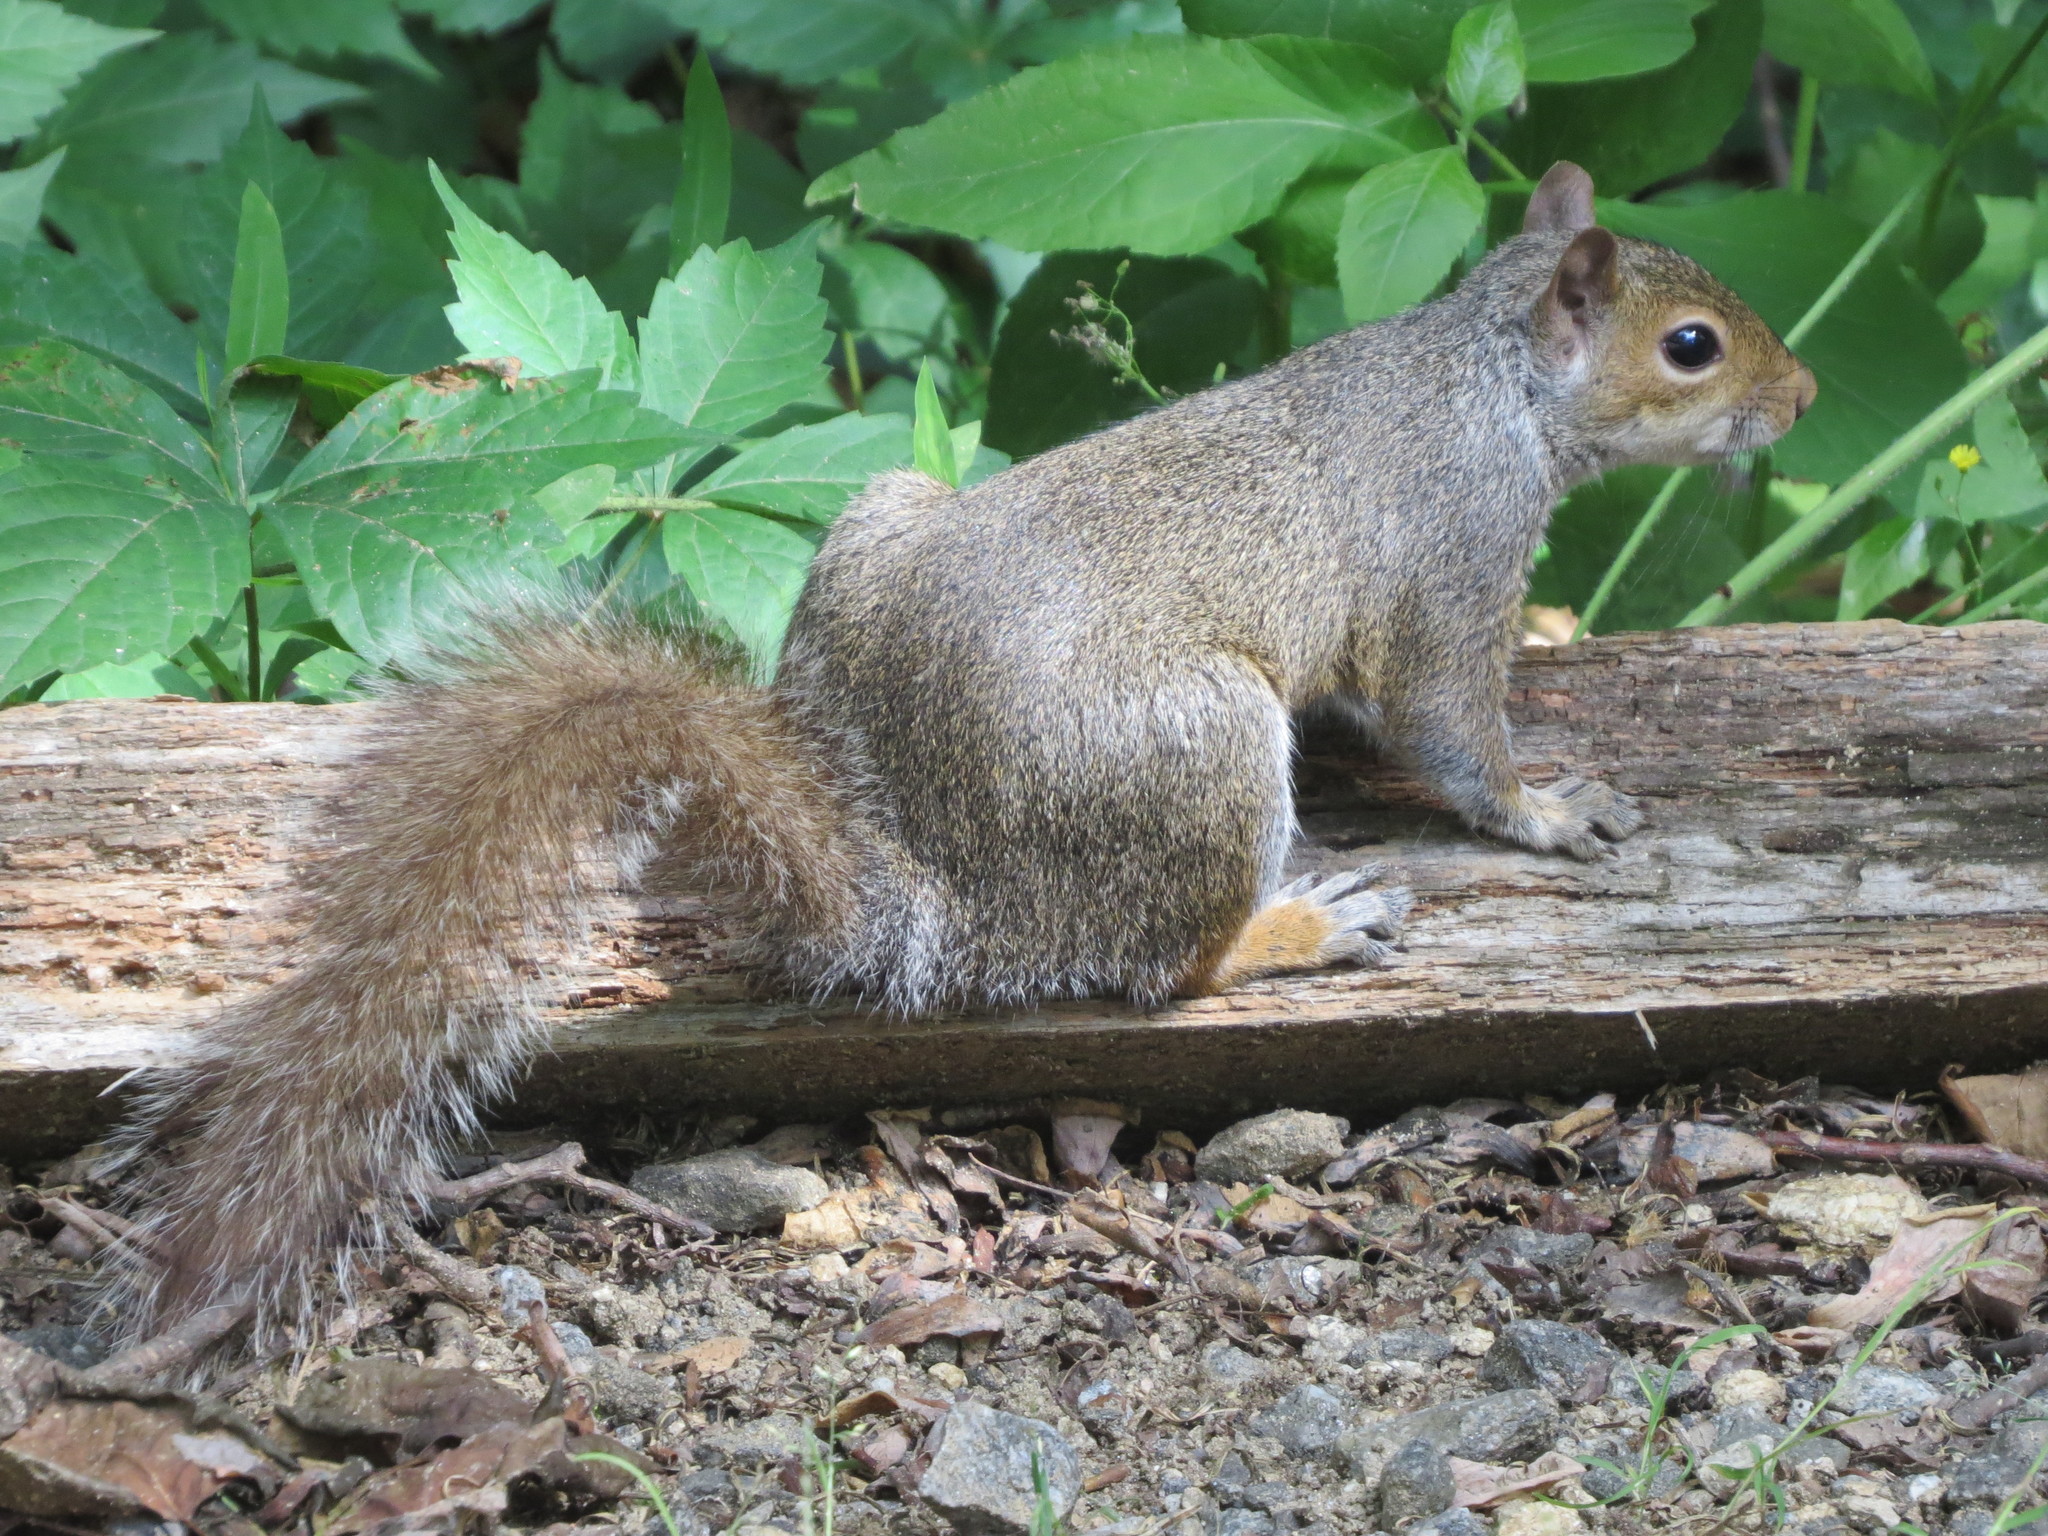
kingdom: Animalia
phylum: Chordata
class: Mammalia
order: Rodentia
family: Sciuridae
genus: Sciurus
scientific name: Sciurus carolinensis
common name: Eastern gray squirrel
